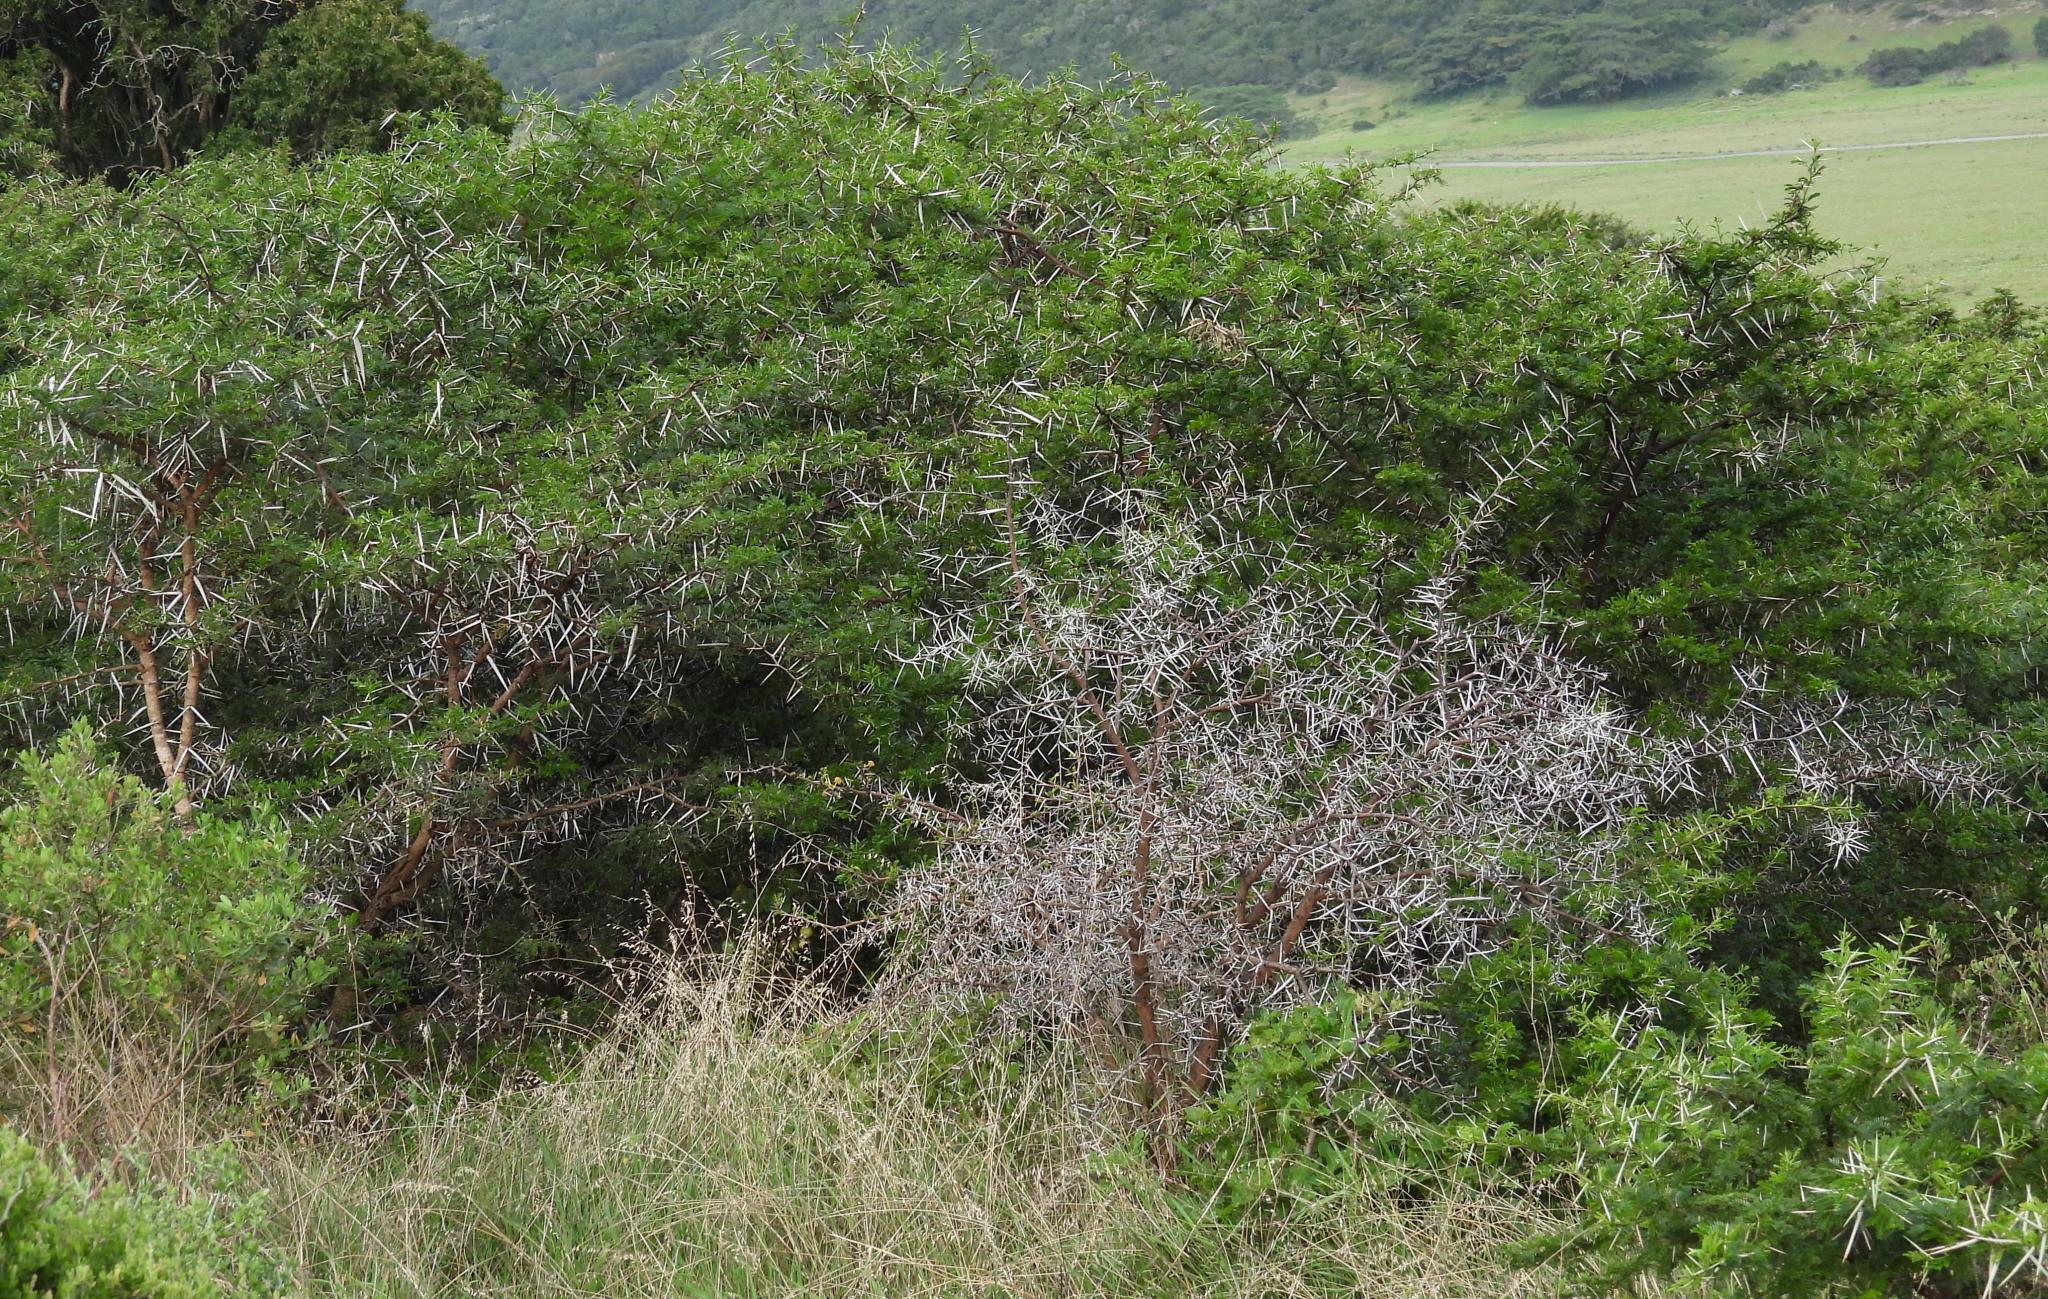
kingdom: Plantae
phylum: Tracheophyta
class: Magnoliopsida
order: Fabales
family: Fabaceae
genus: Vachellia
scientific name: Vachellia karroo
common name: Sweet thorn
